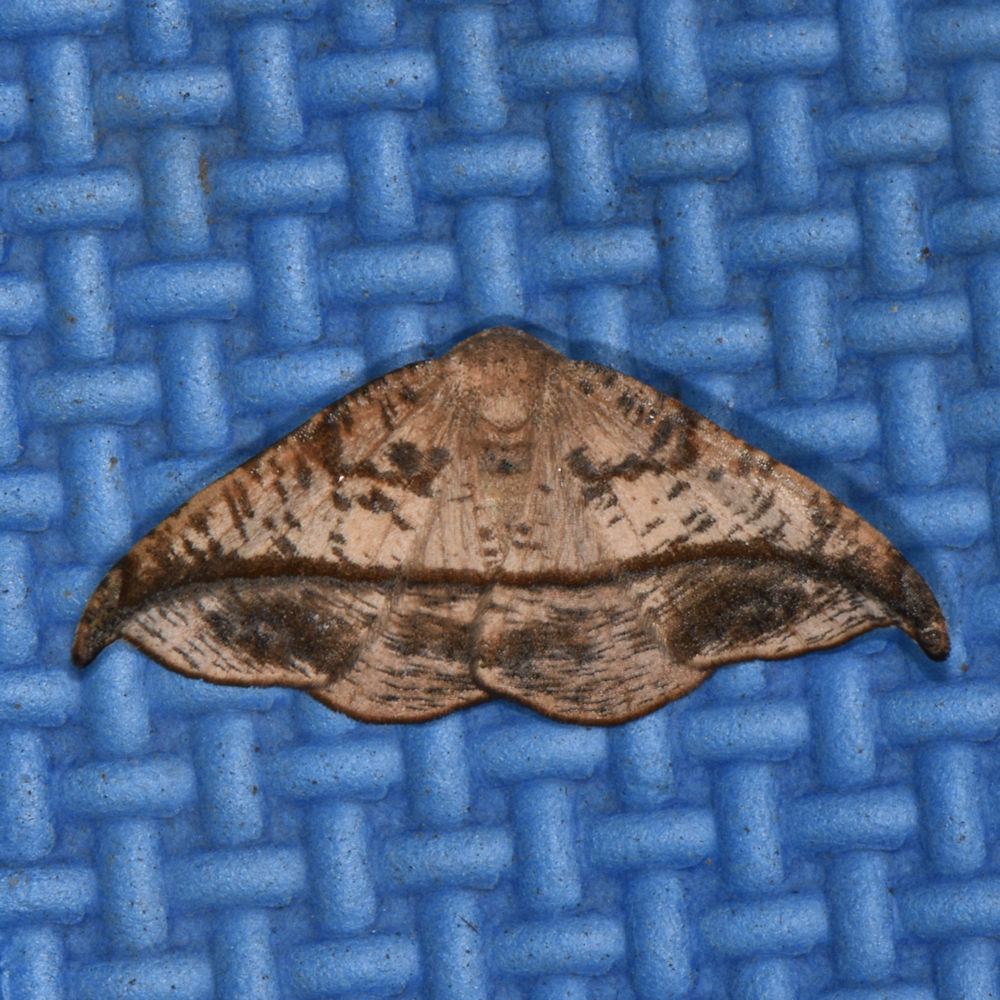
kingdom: Animalia
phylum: Arthropoda
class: Insecta
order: Lepidoptera
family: Geometridae
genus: Patalene
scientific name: Patalene olyzonaria
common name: Juniper geometer moth
